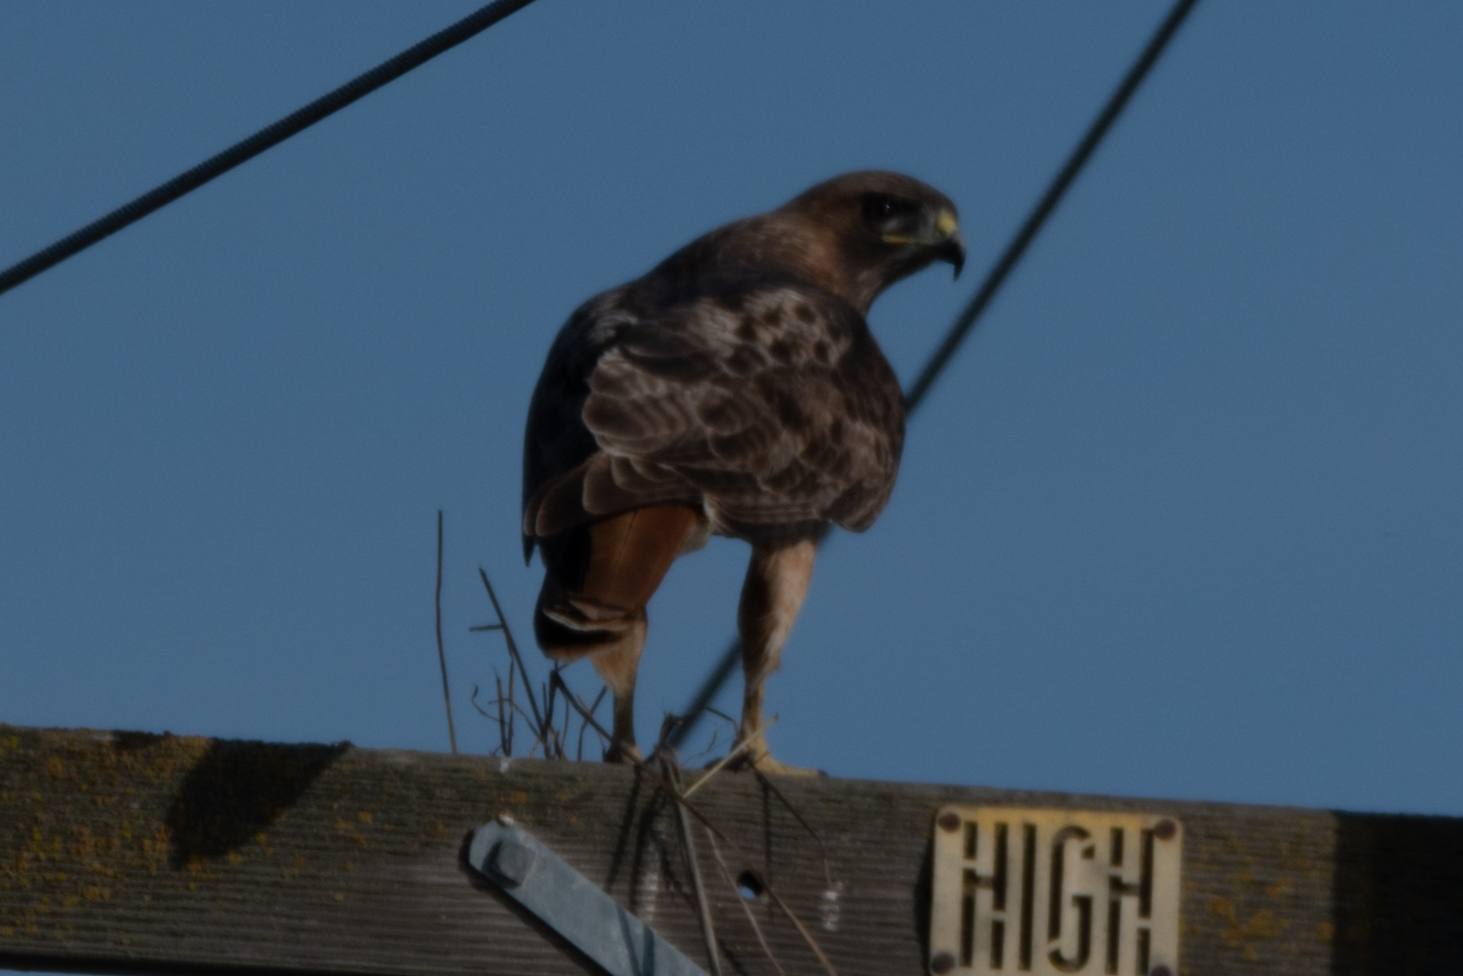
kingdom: Animalia
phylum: Chordata
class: Aves
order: Accipitriformes
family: Accipitridae
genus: Buteo
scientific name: Buteo jamaicensis
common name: Red-tailed hawk
